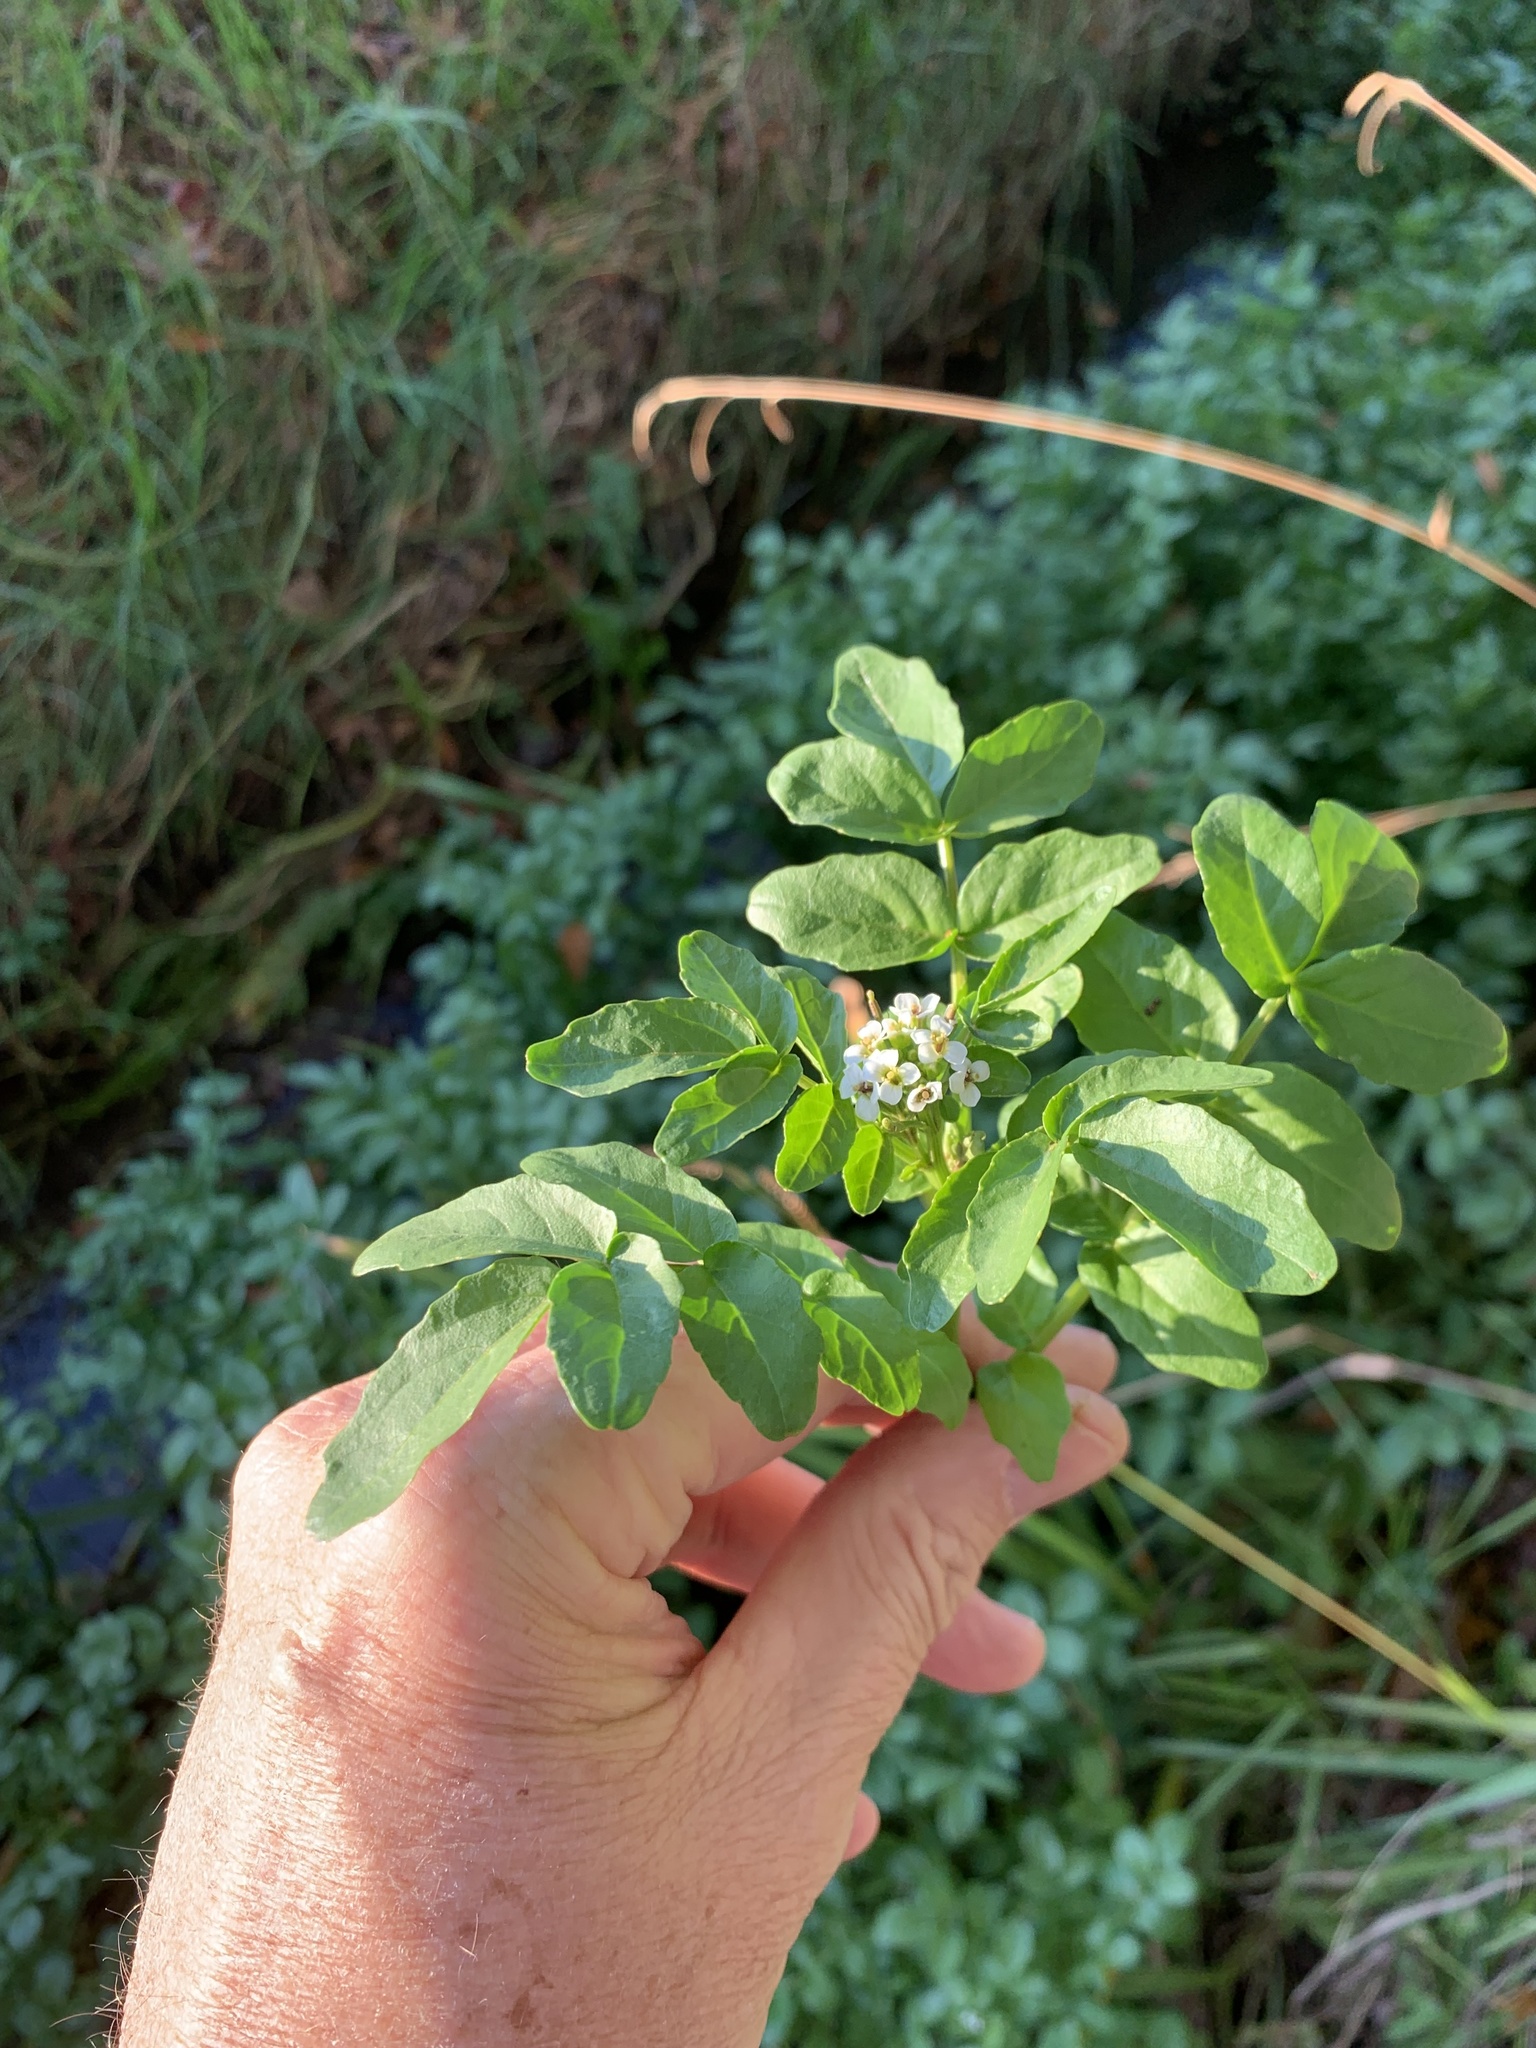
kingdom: Plantae
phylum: Tracheophyta
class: Magnoliopsida
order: Brassicales
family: Brassicaceae
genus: Nasturtium
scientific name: Nasturtium officinale
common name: Watercress
